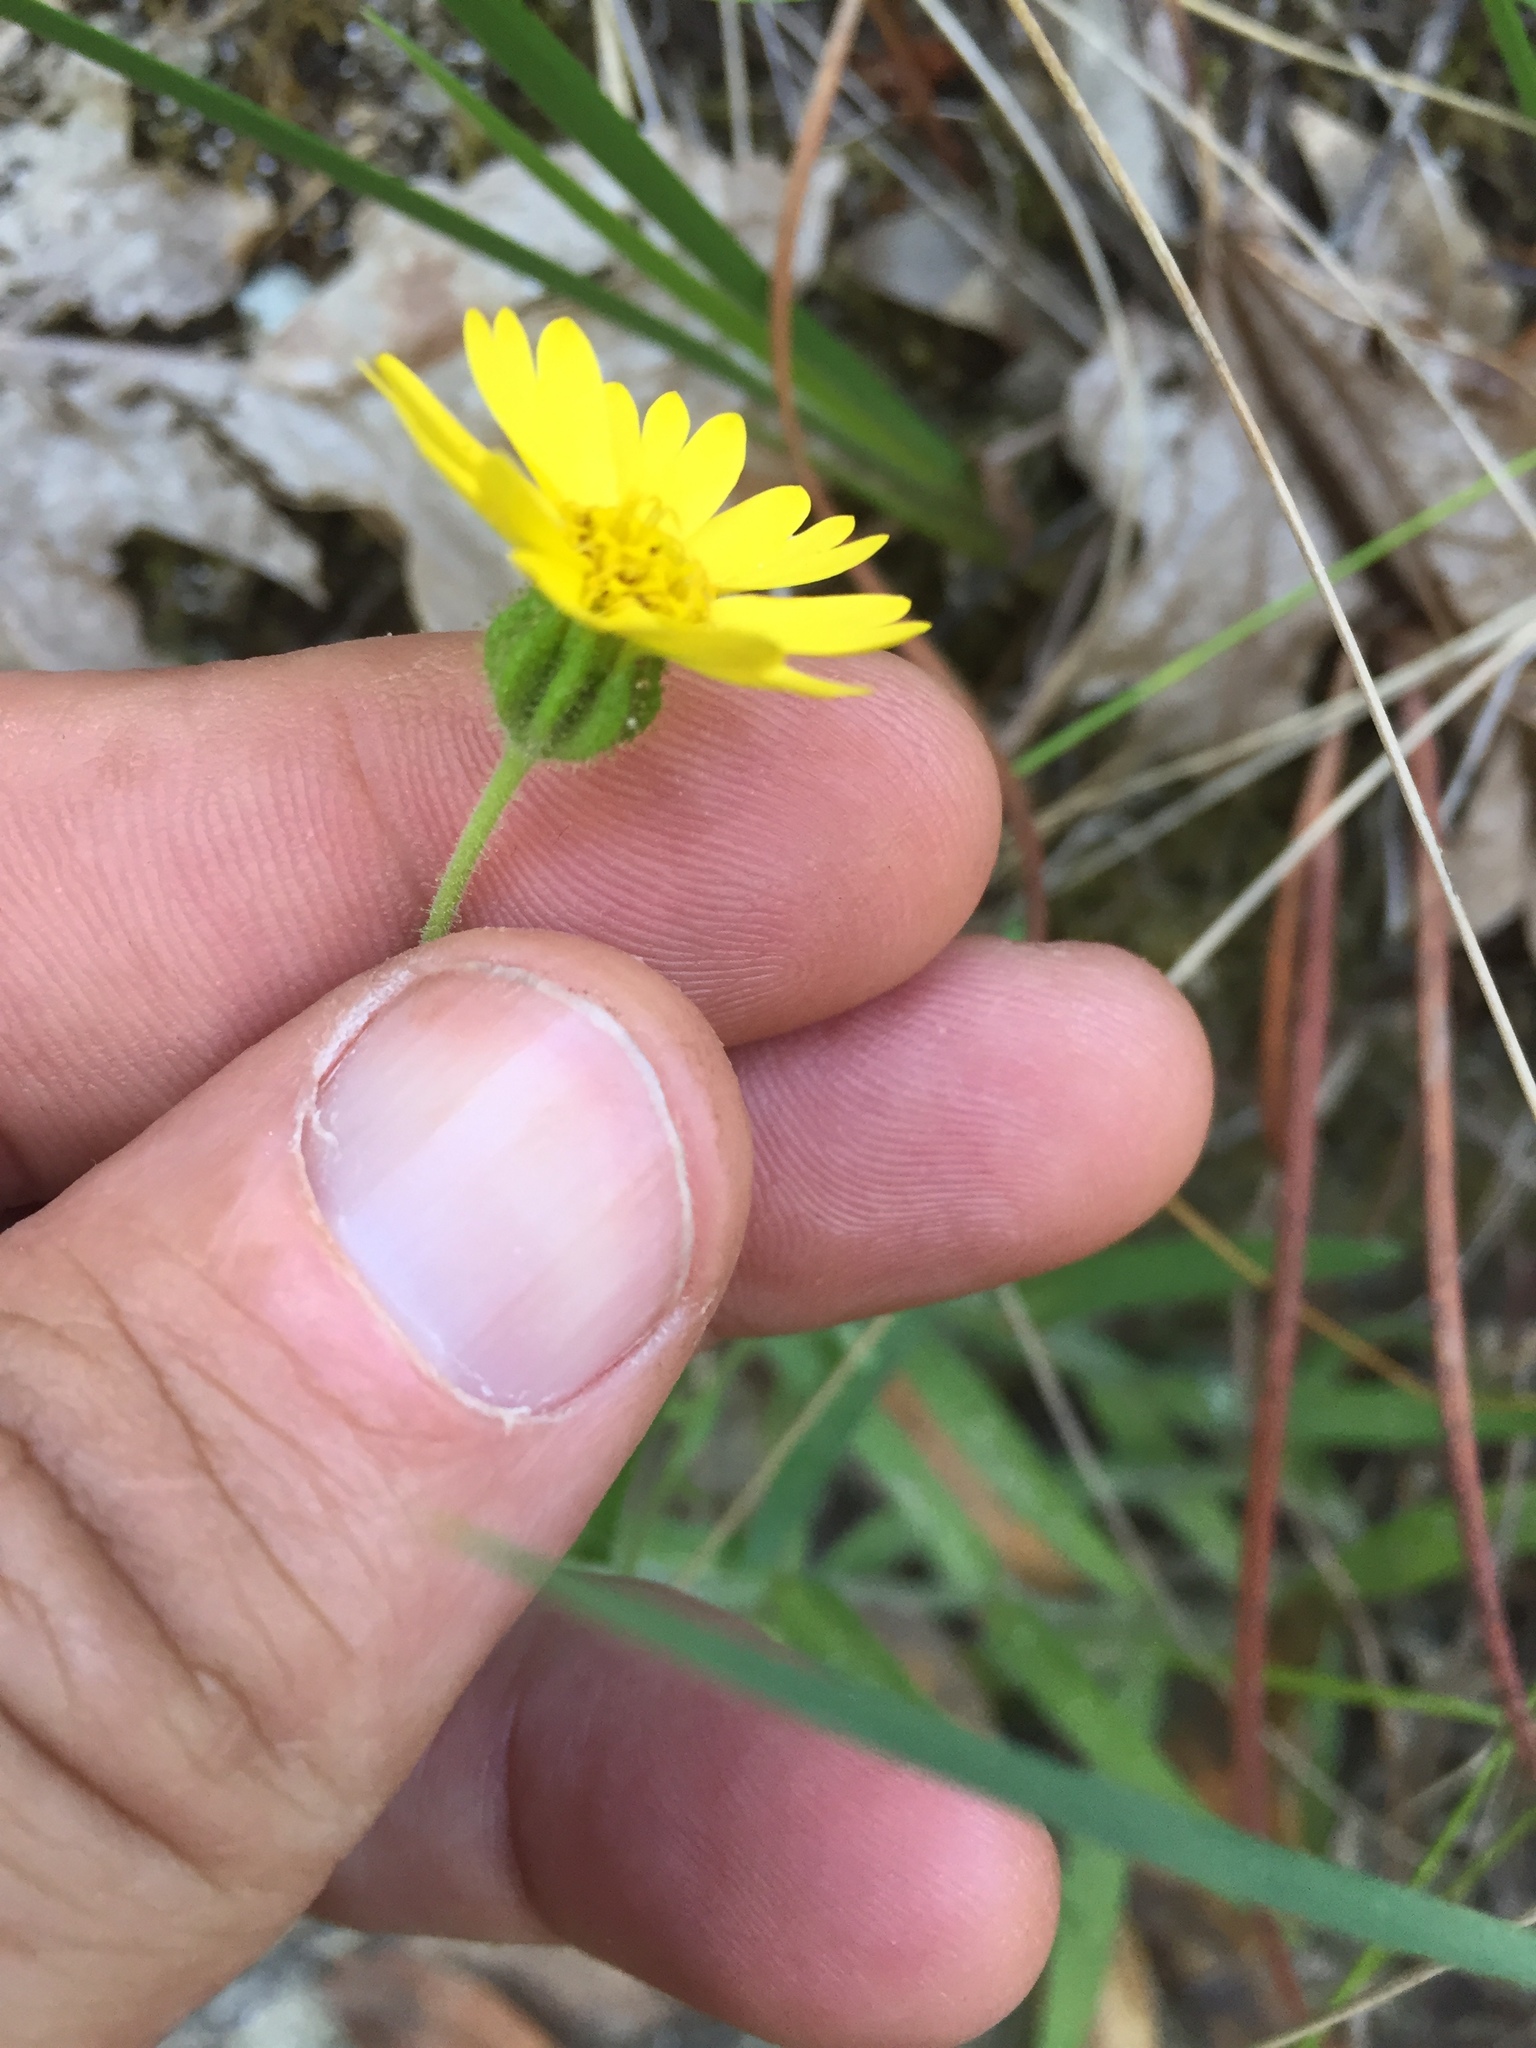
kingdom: Plantae
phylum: Tracheophyta
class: Magnoliopsida
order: Asterales
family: Asteraceae
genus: Anisocarpus
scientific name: Anisocarpus madioides
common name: Woodland madia
